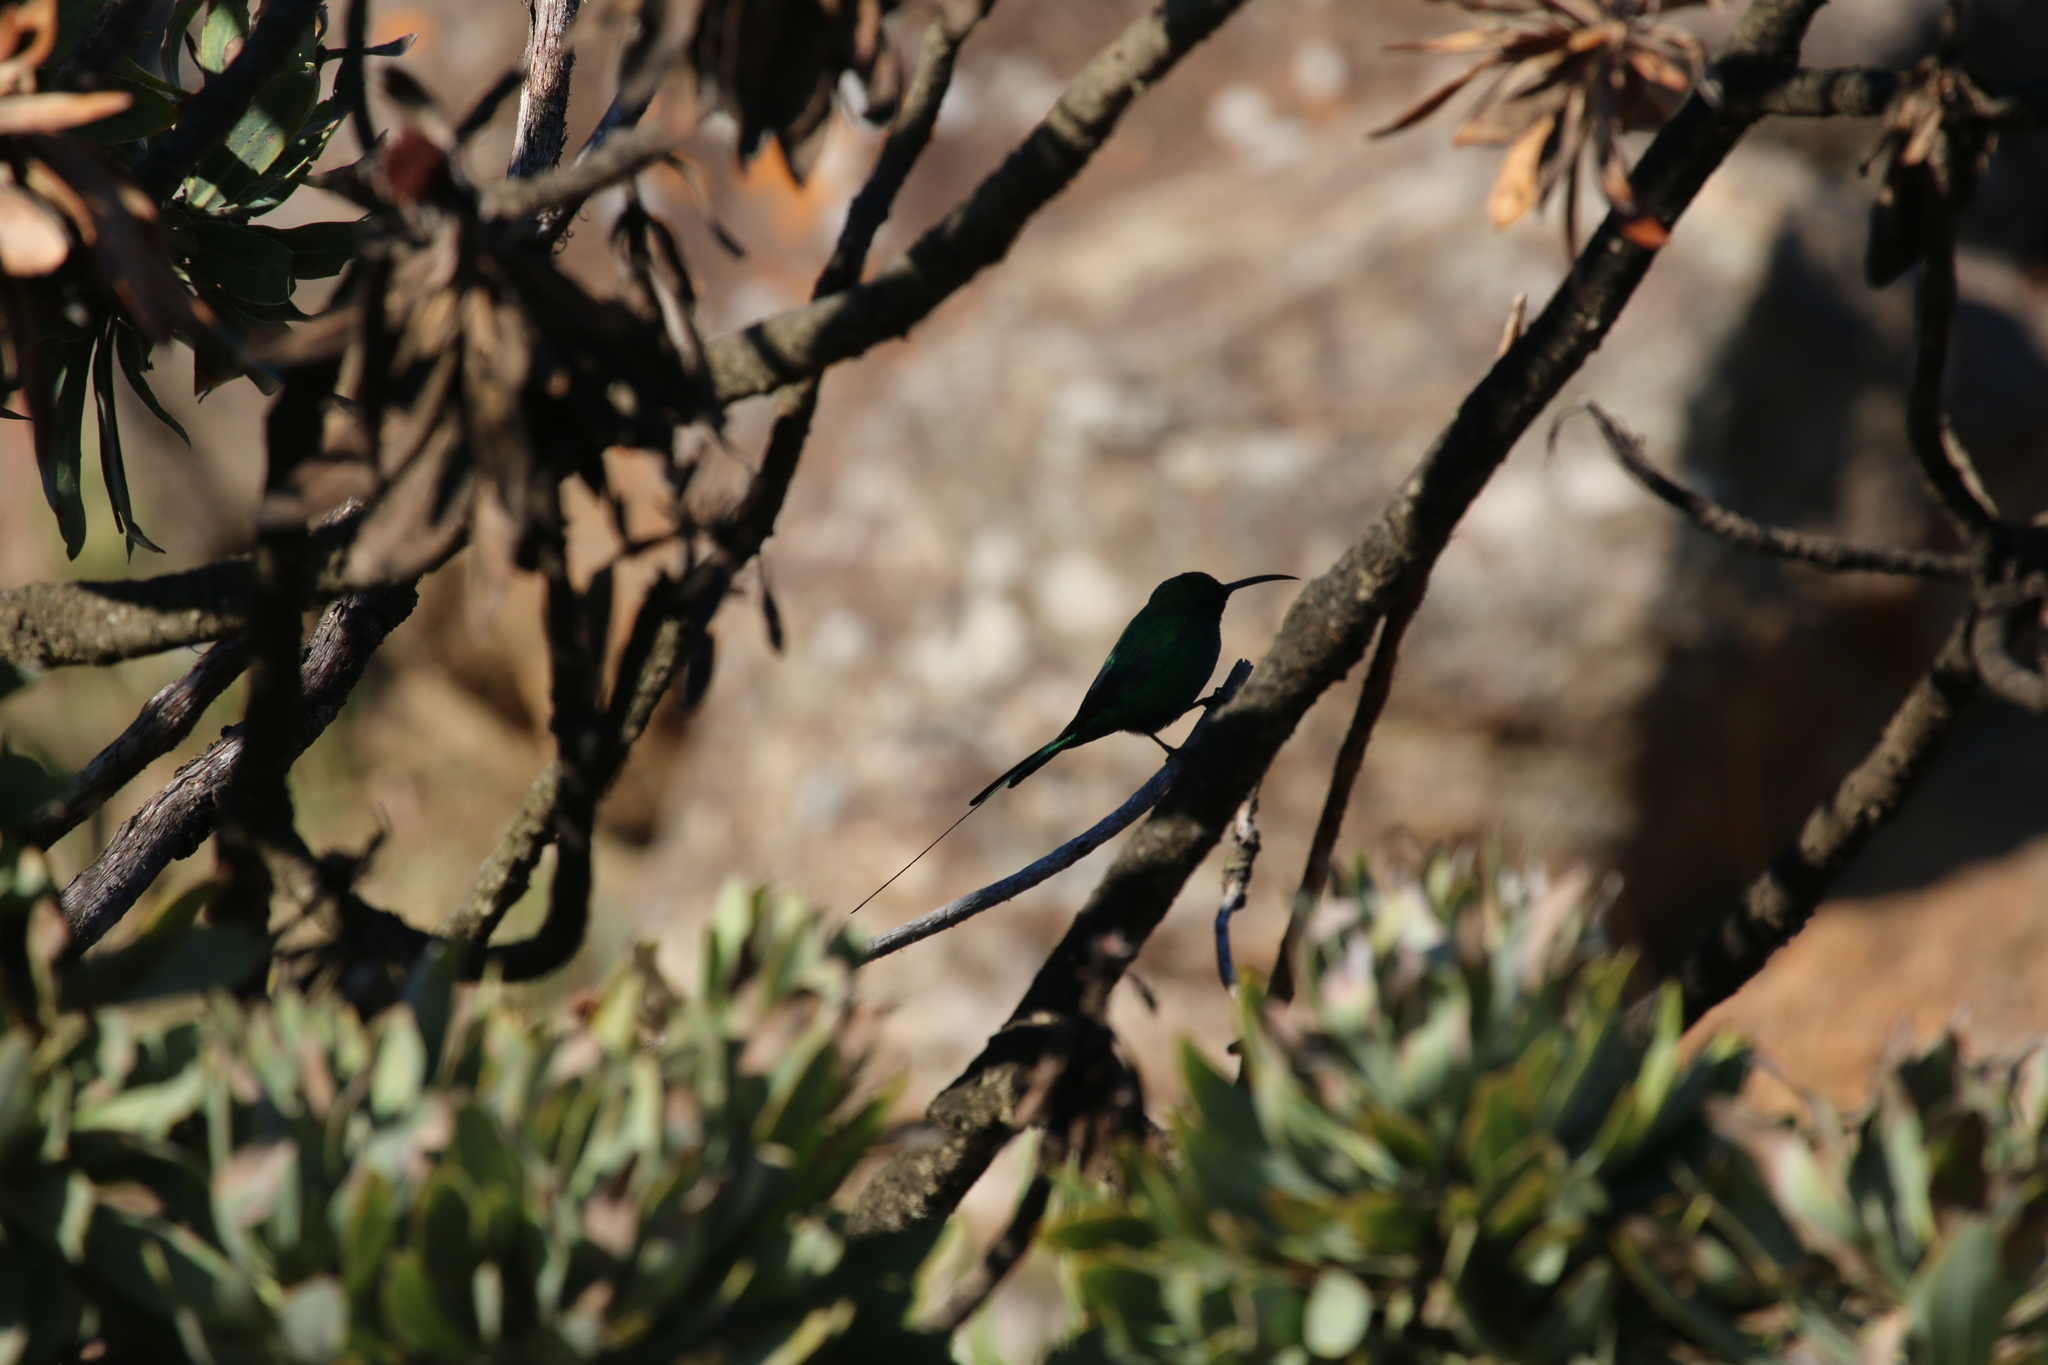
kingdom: Animalia
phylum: Chordata
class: Aves
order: Passeriformes
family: Nectariniidae
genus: Nectarinia
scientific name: Nectarinia famosa
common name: Malachite sunbird
